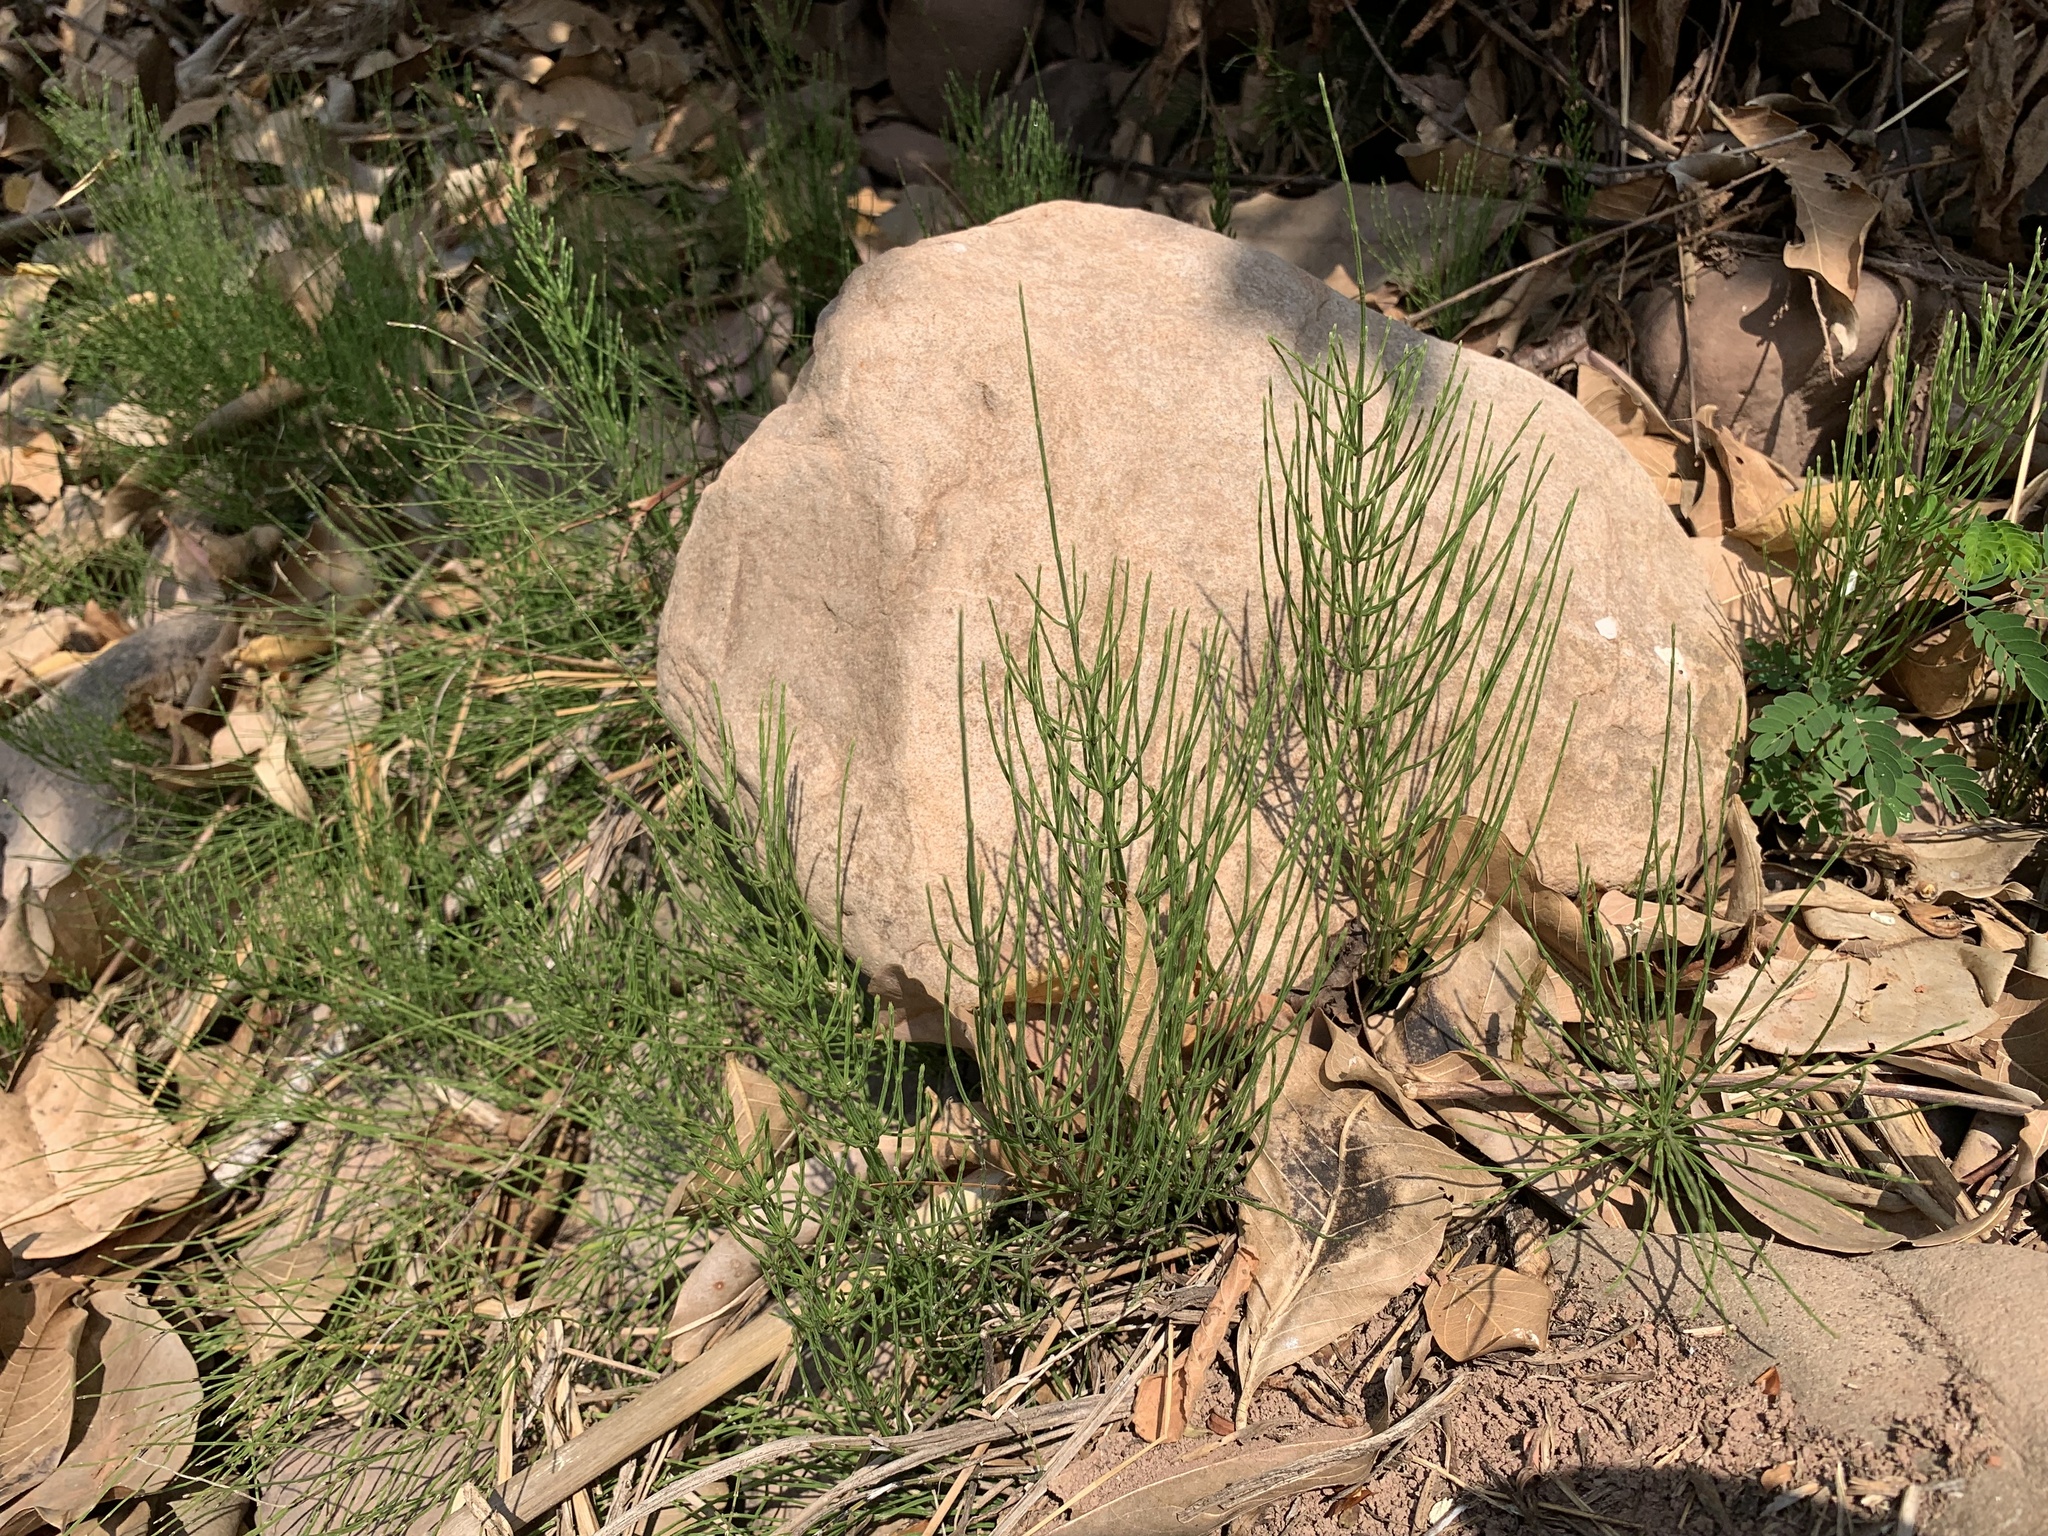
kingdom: Plantae
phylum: Tracheophyta
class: Polypodiopsida
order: Equisetales
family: Equisetaceae
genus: Equisetum
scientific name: Equisetum arvense
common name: Field horsetail
